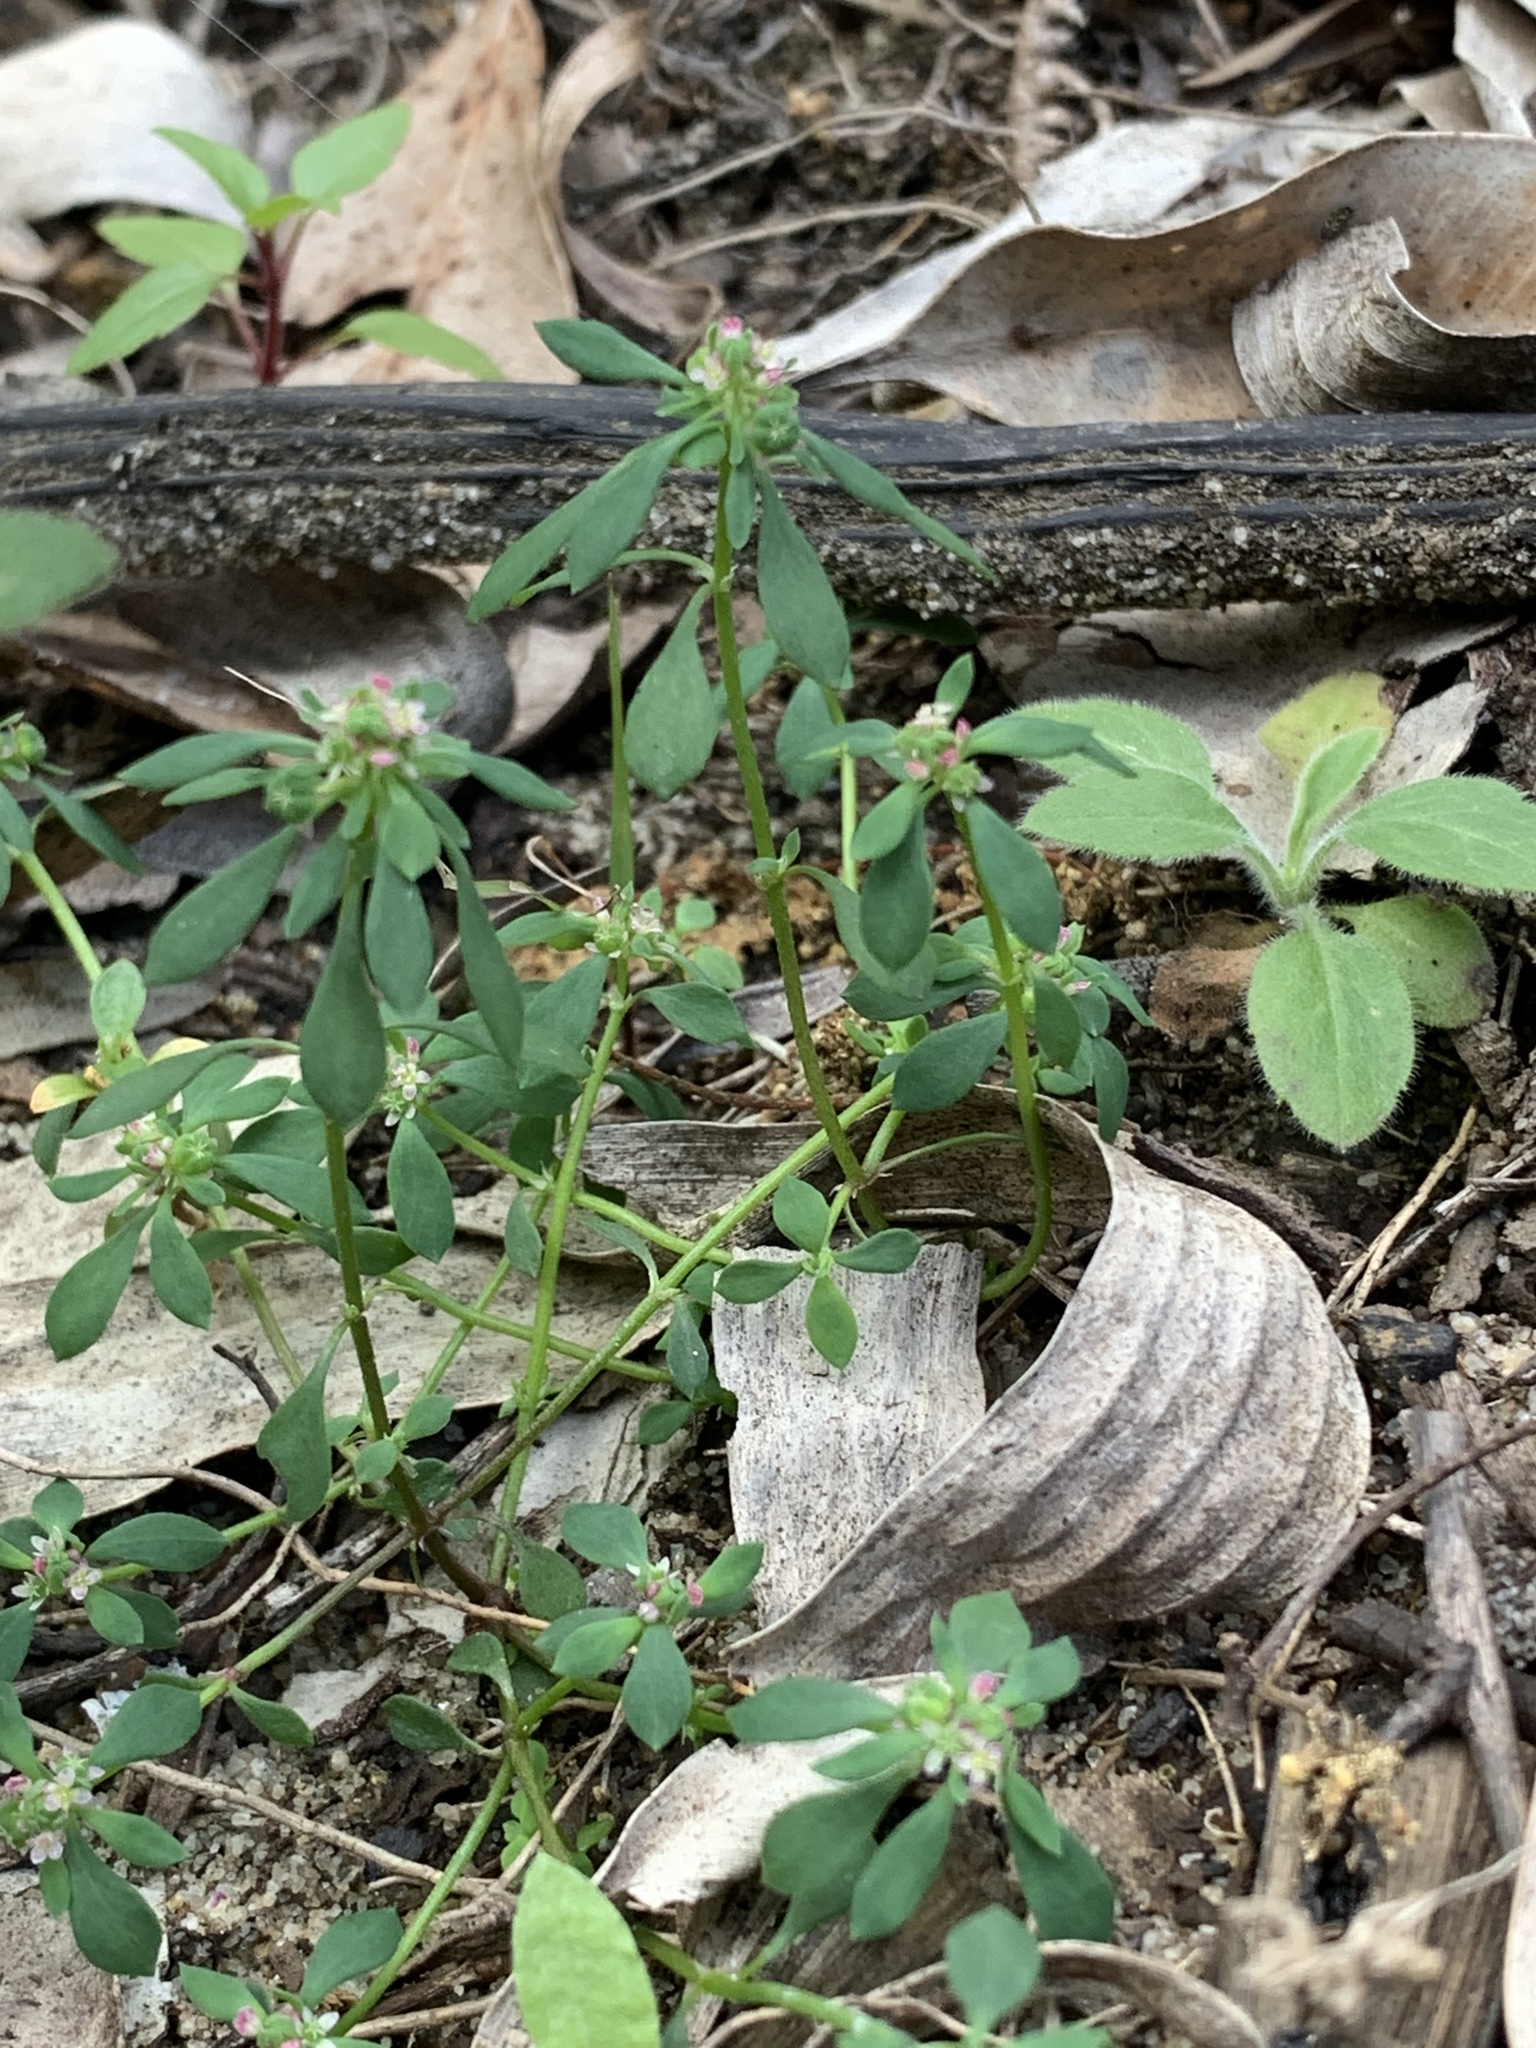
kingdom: Plantae
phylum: Tracheophyta
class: Magnoliopsida
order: Malpighiales
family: Phyllanthaceae
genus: Poranthera
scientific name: Poranthera microphylla
